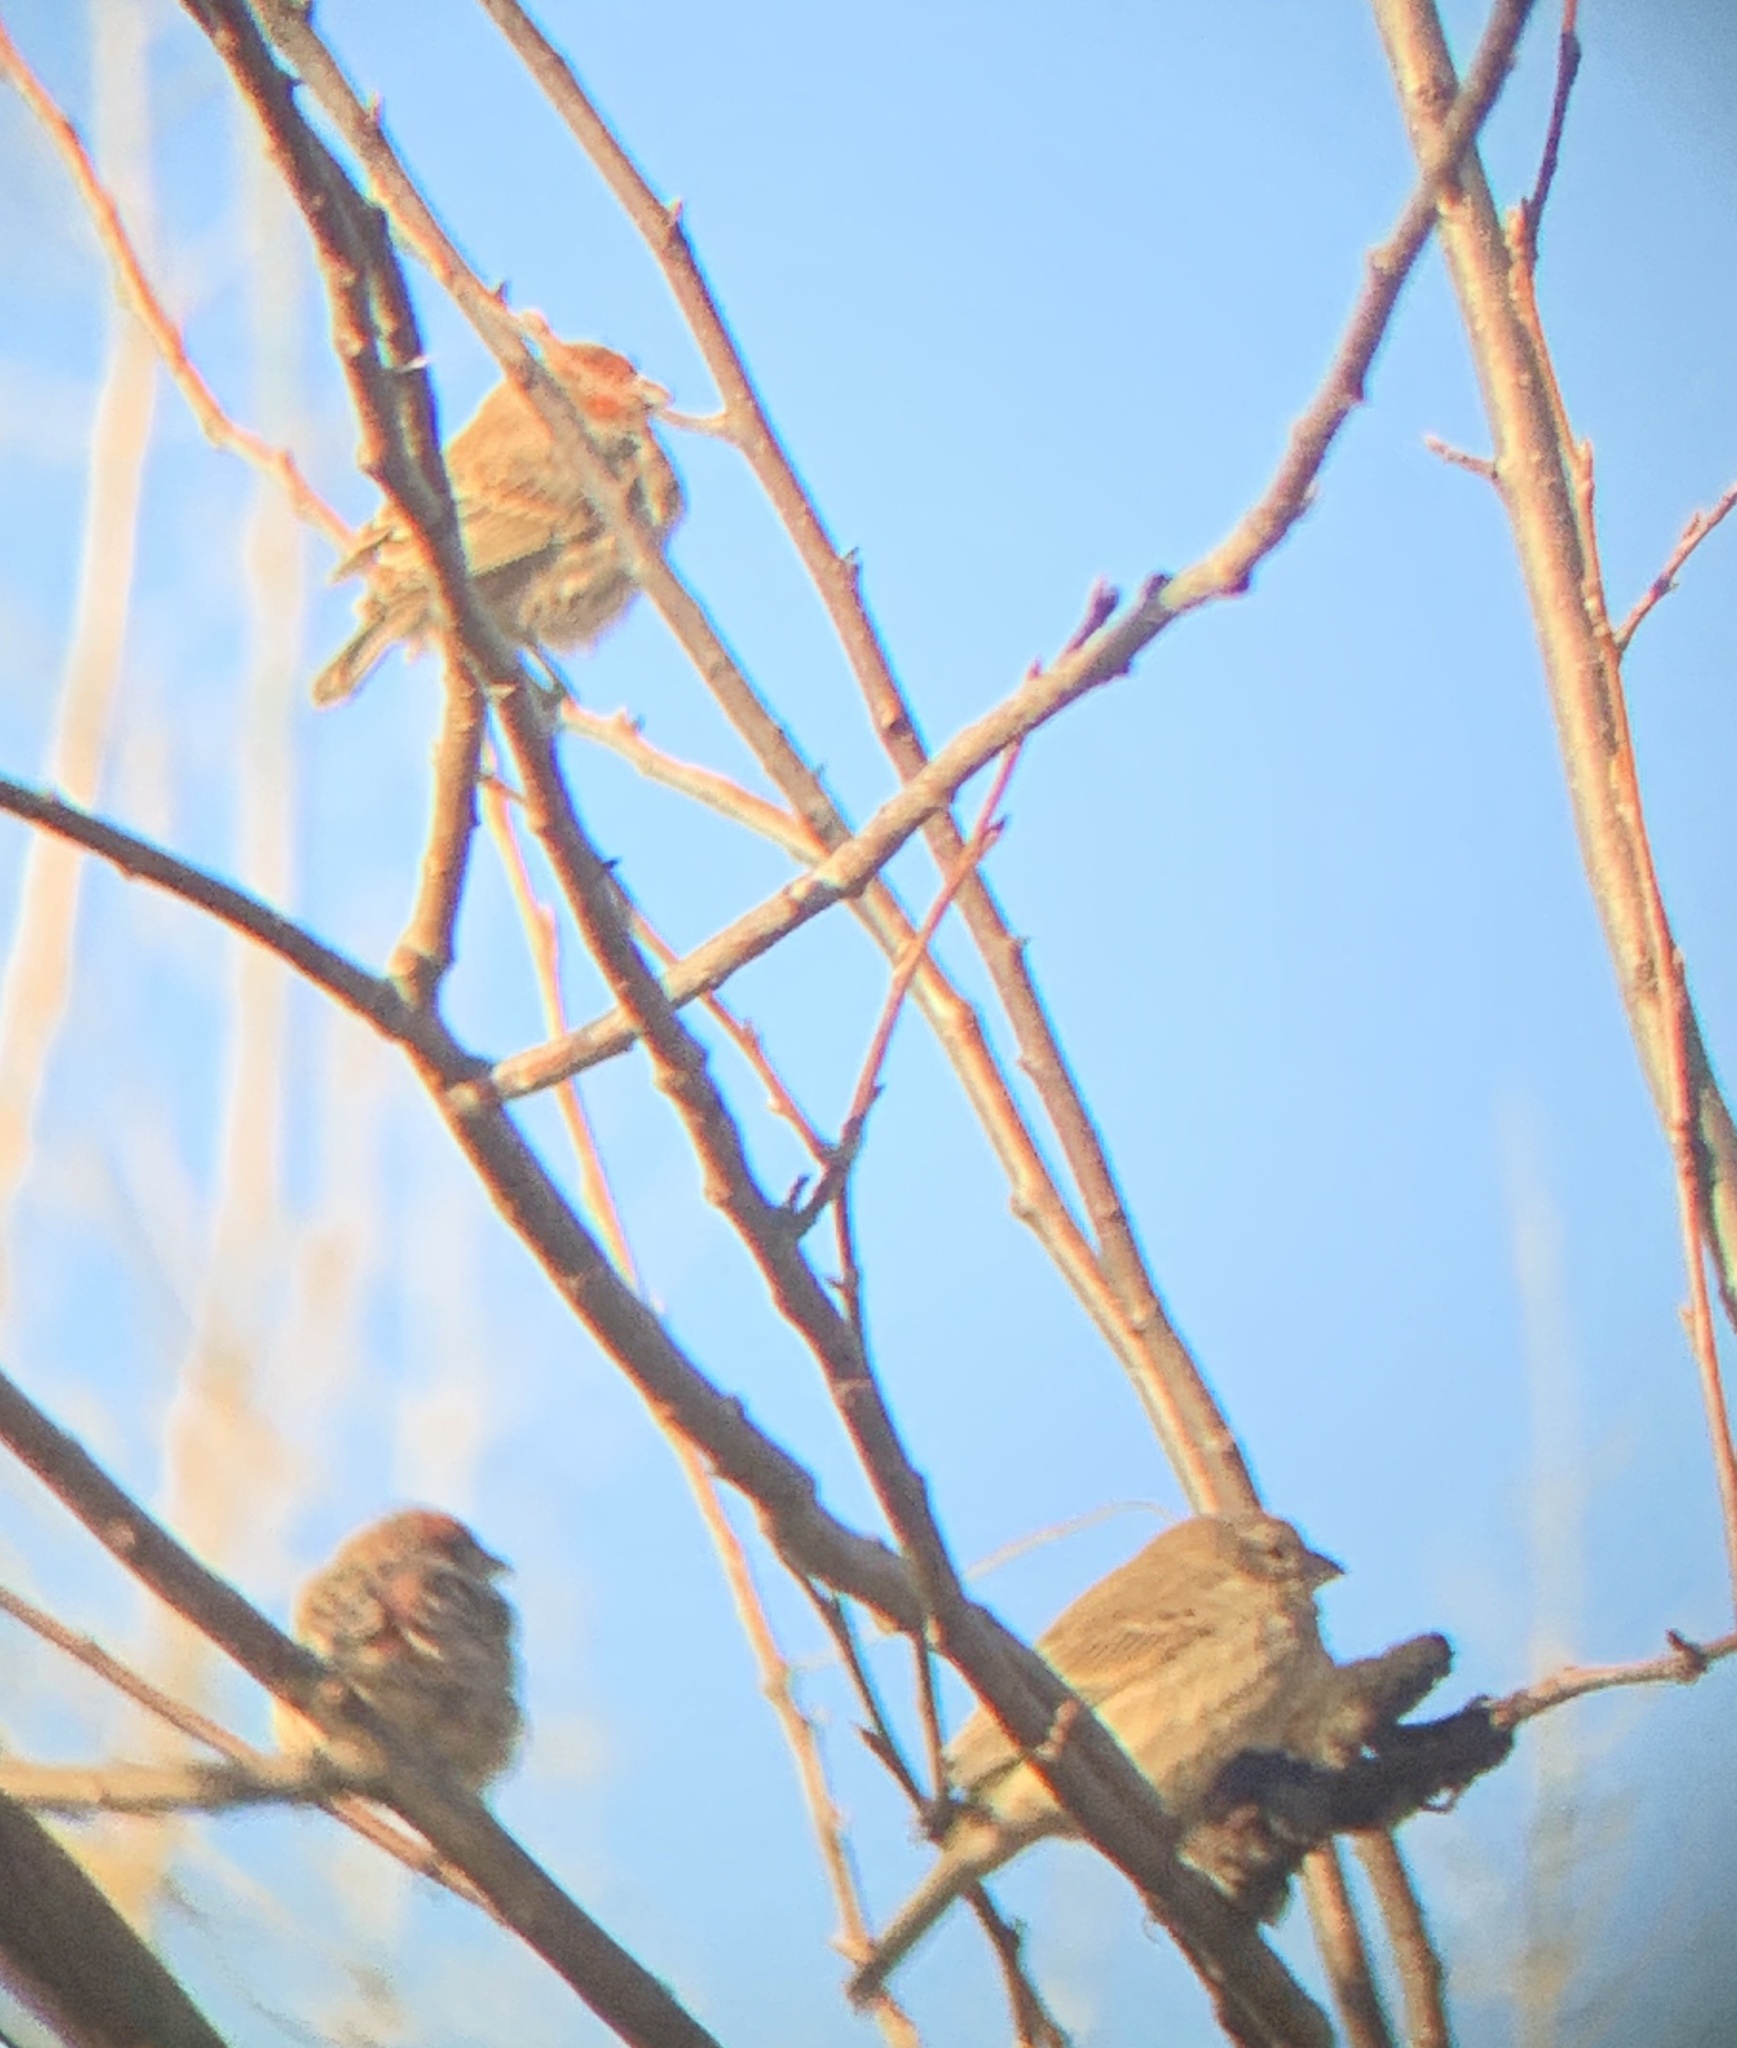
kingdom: Animalia
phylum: Chordata
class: Aves
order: Passeriformes
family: Fringillidae
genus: Haemorhous
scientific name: Haemorhous mexicanus
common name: House finch
